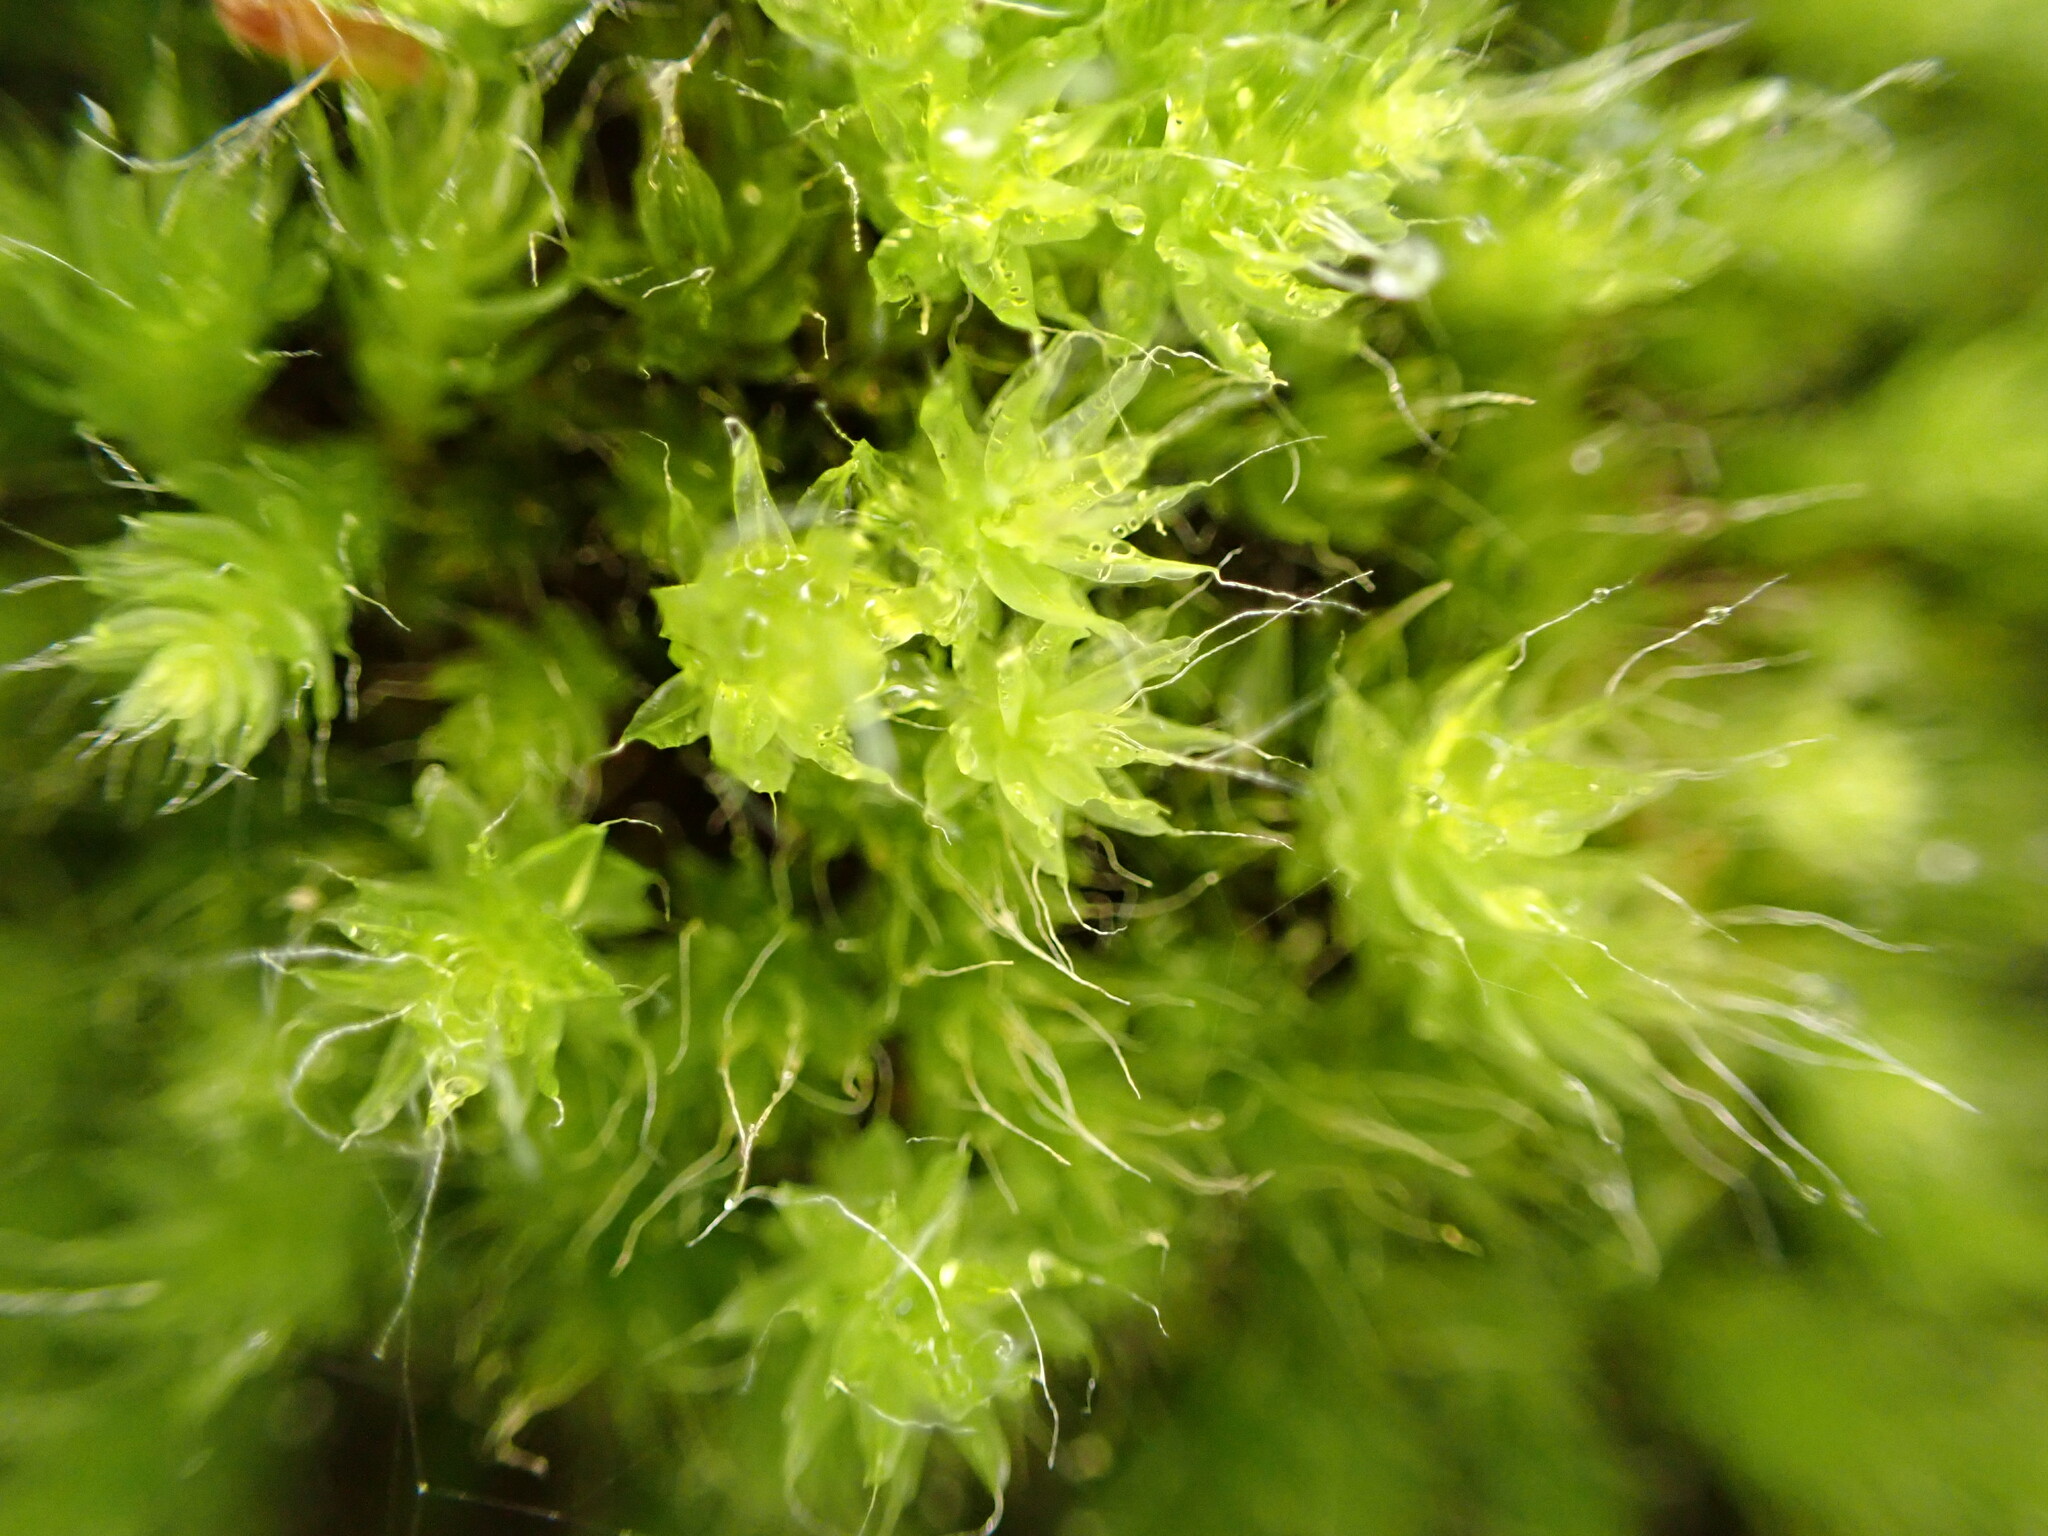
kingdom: Plantae
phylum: Bryophyta
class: Bryopsida
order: Bryales
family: Leptostomataceae
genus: Leptostomum
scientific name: Leptostomum inclinans
